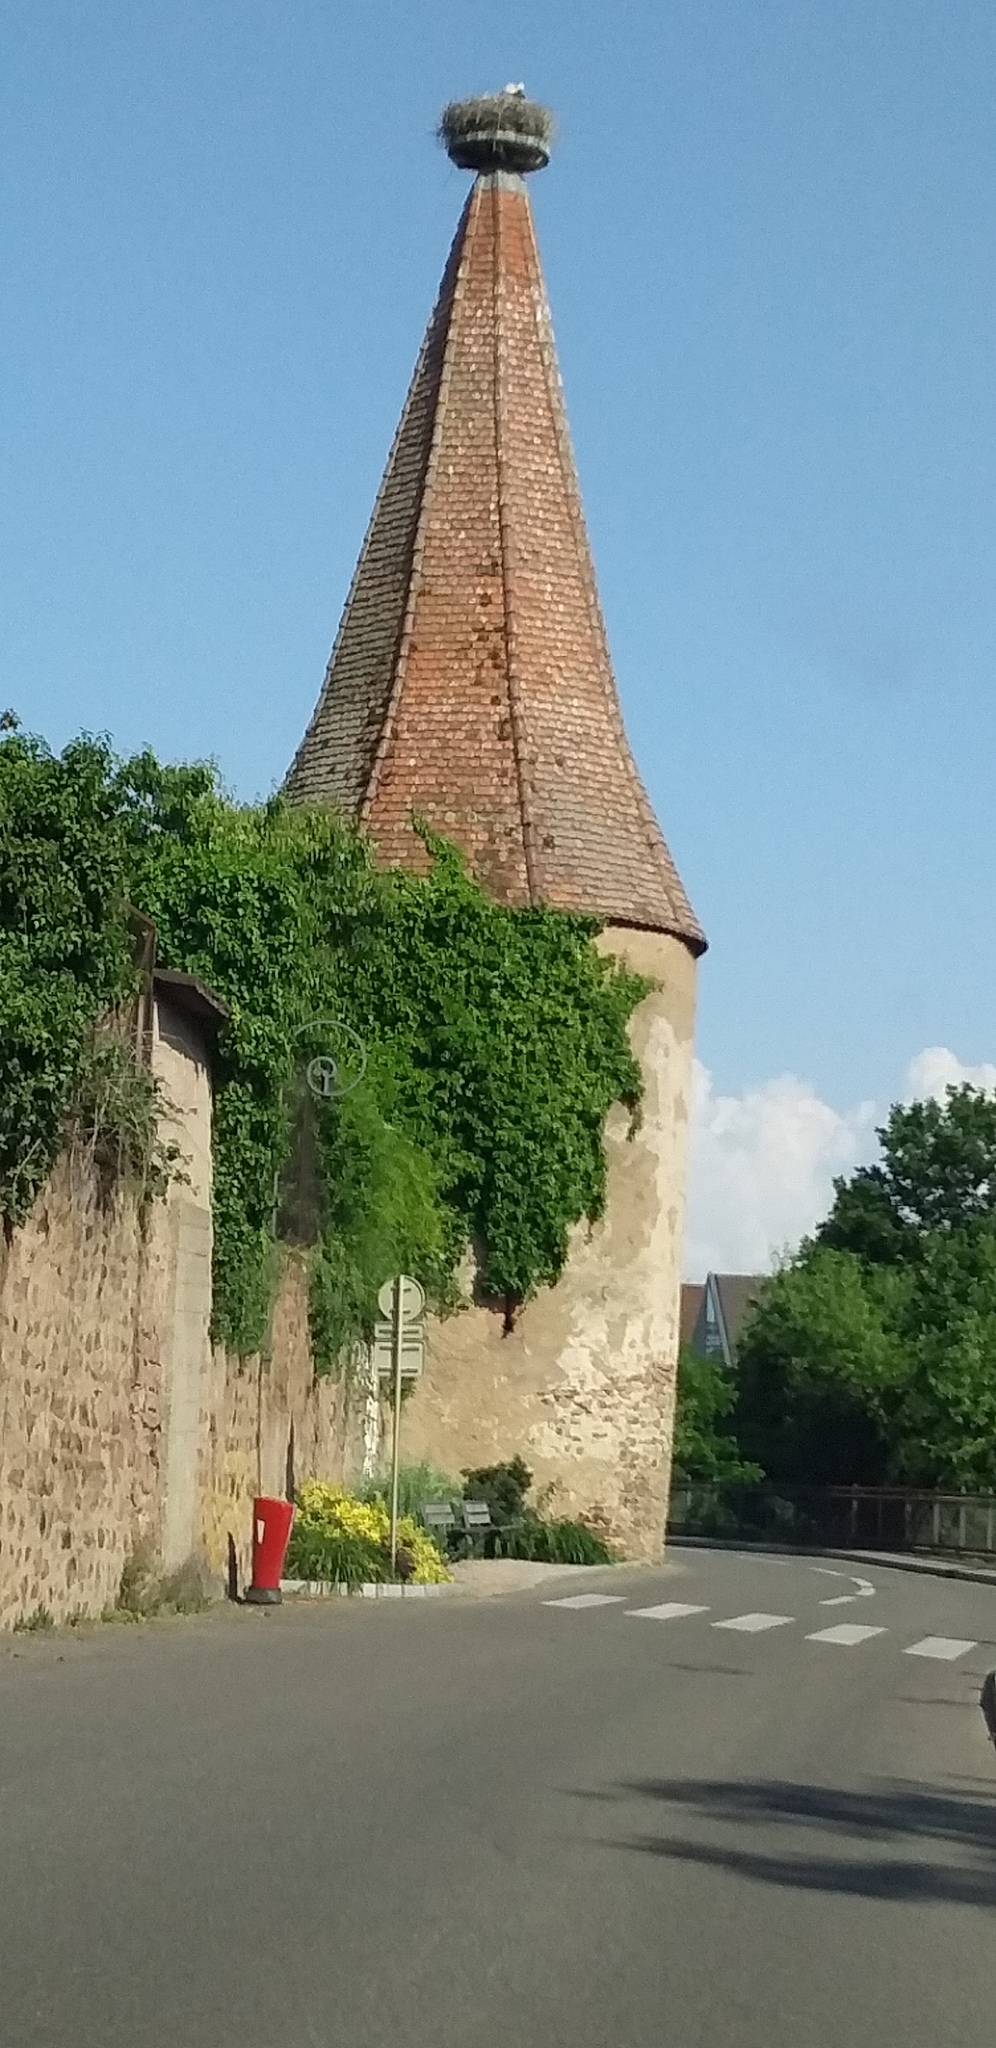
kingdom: Animalia
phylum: Chordata
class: Aves
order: Ciconiiformes
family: Ciconiidae
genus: Ciconia
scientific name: Ciconia ciconia
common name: White stork
